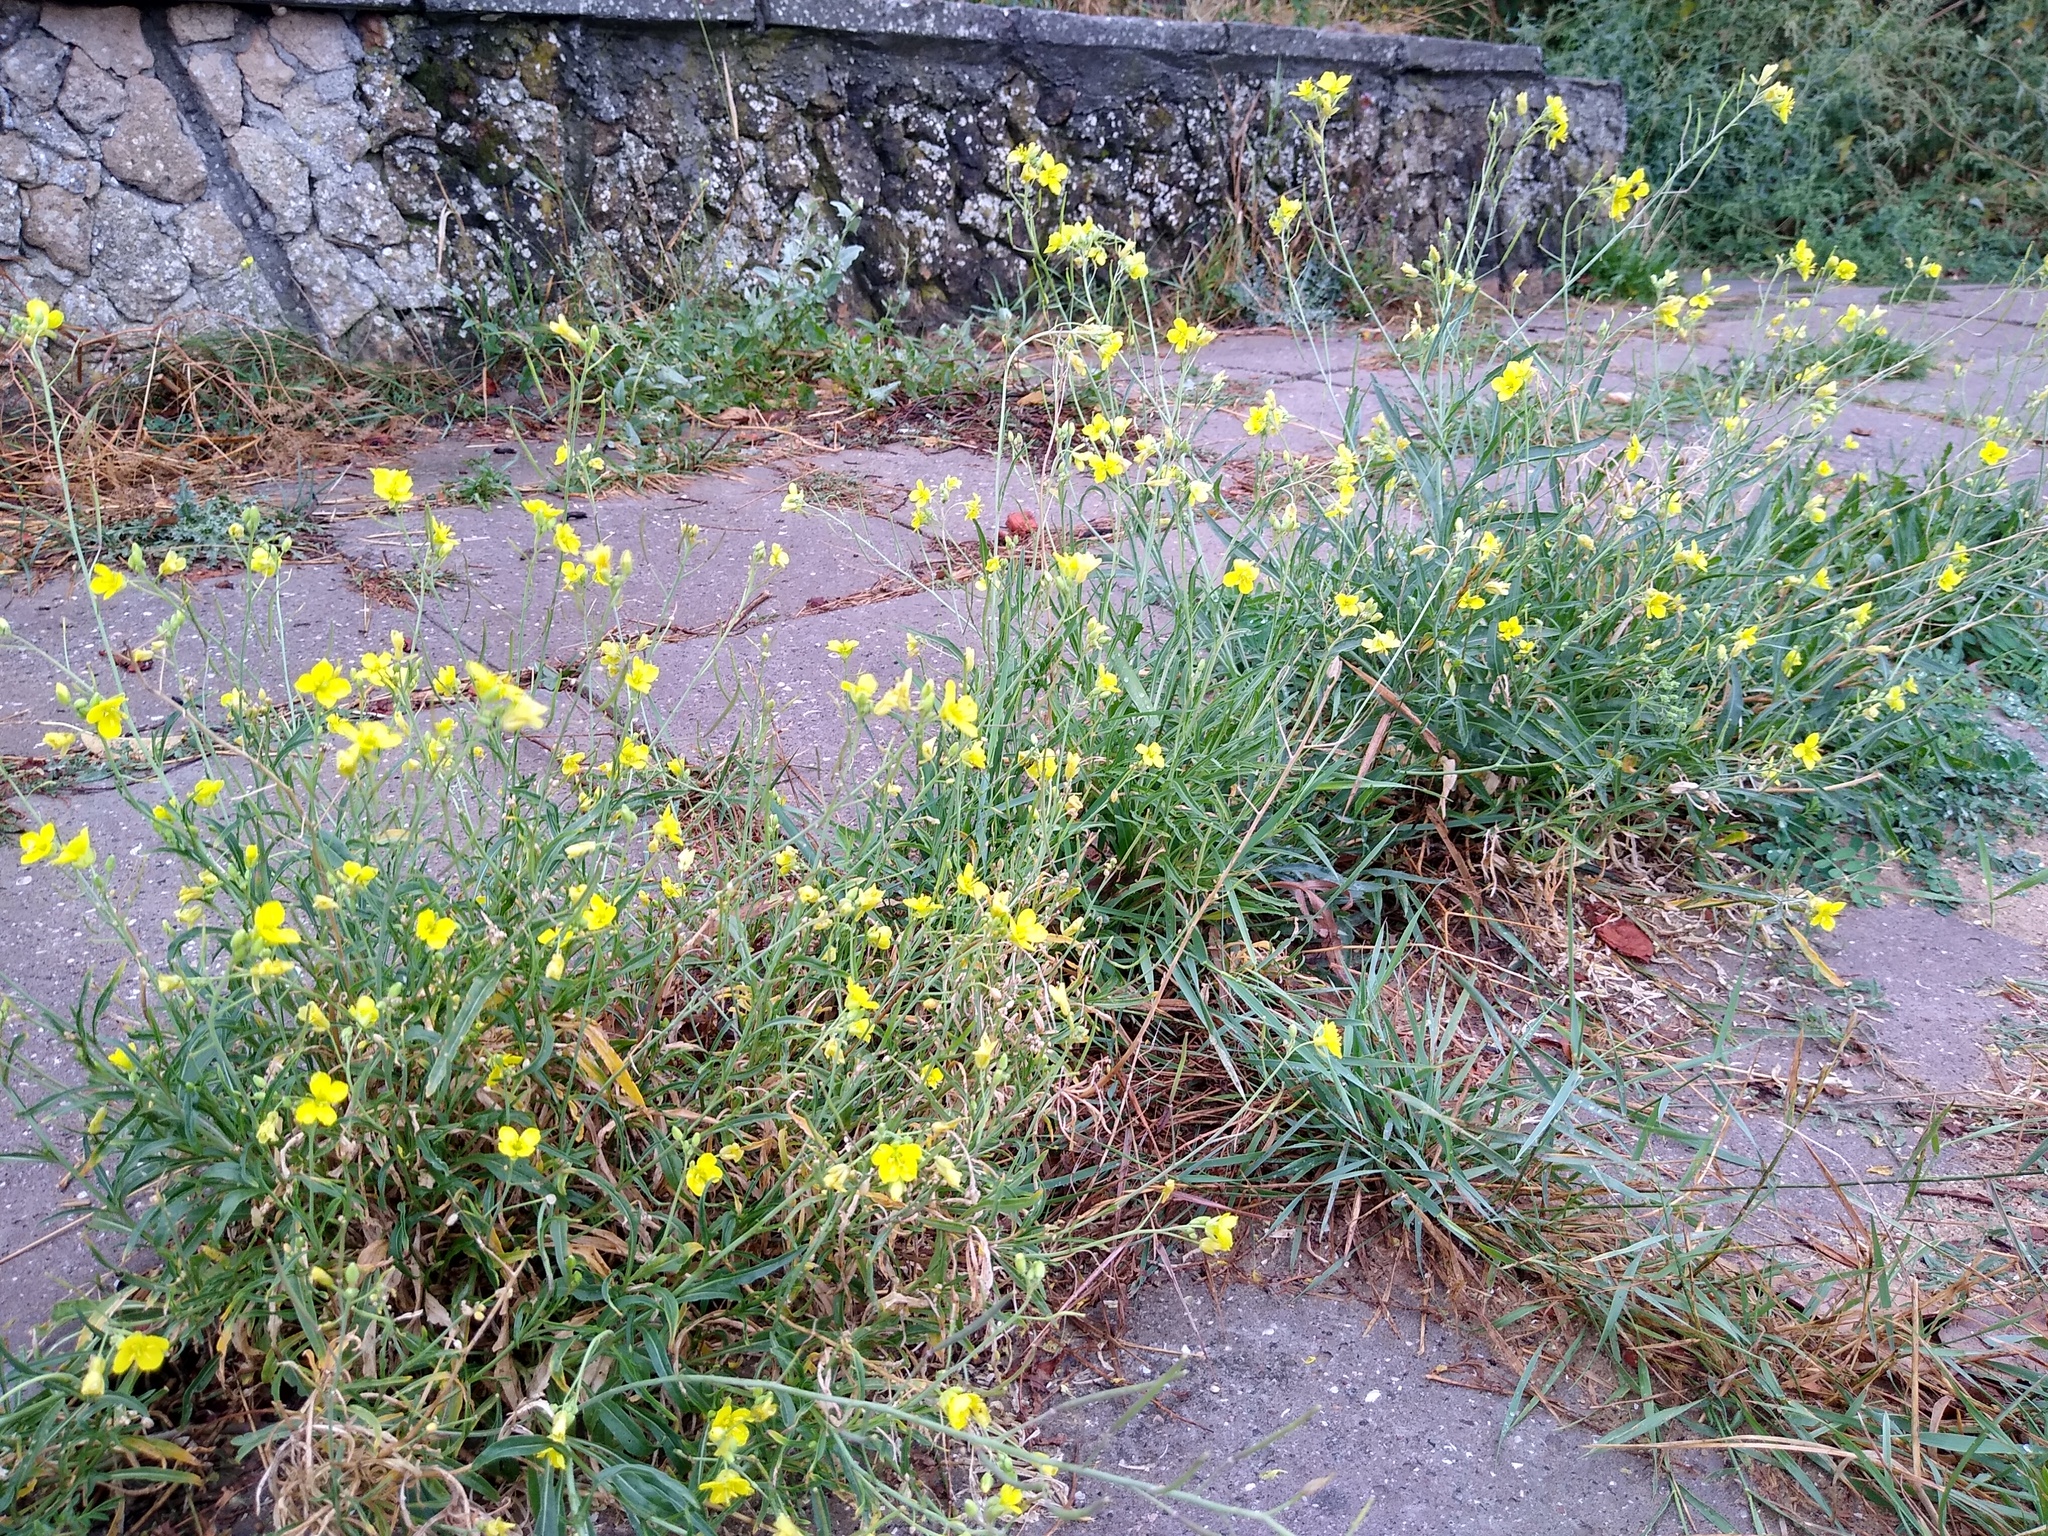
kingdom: Plantae
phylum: Tracheophyta
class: Magnoliopsida
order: Brassicales
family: Brassicaceae
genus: Diplotaxis
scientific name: Diplotaxis tenuifolia
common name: Perennial wall-rocket
